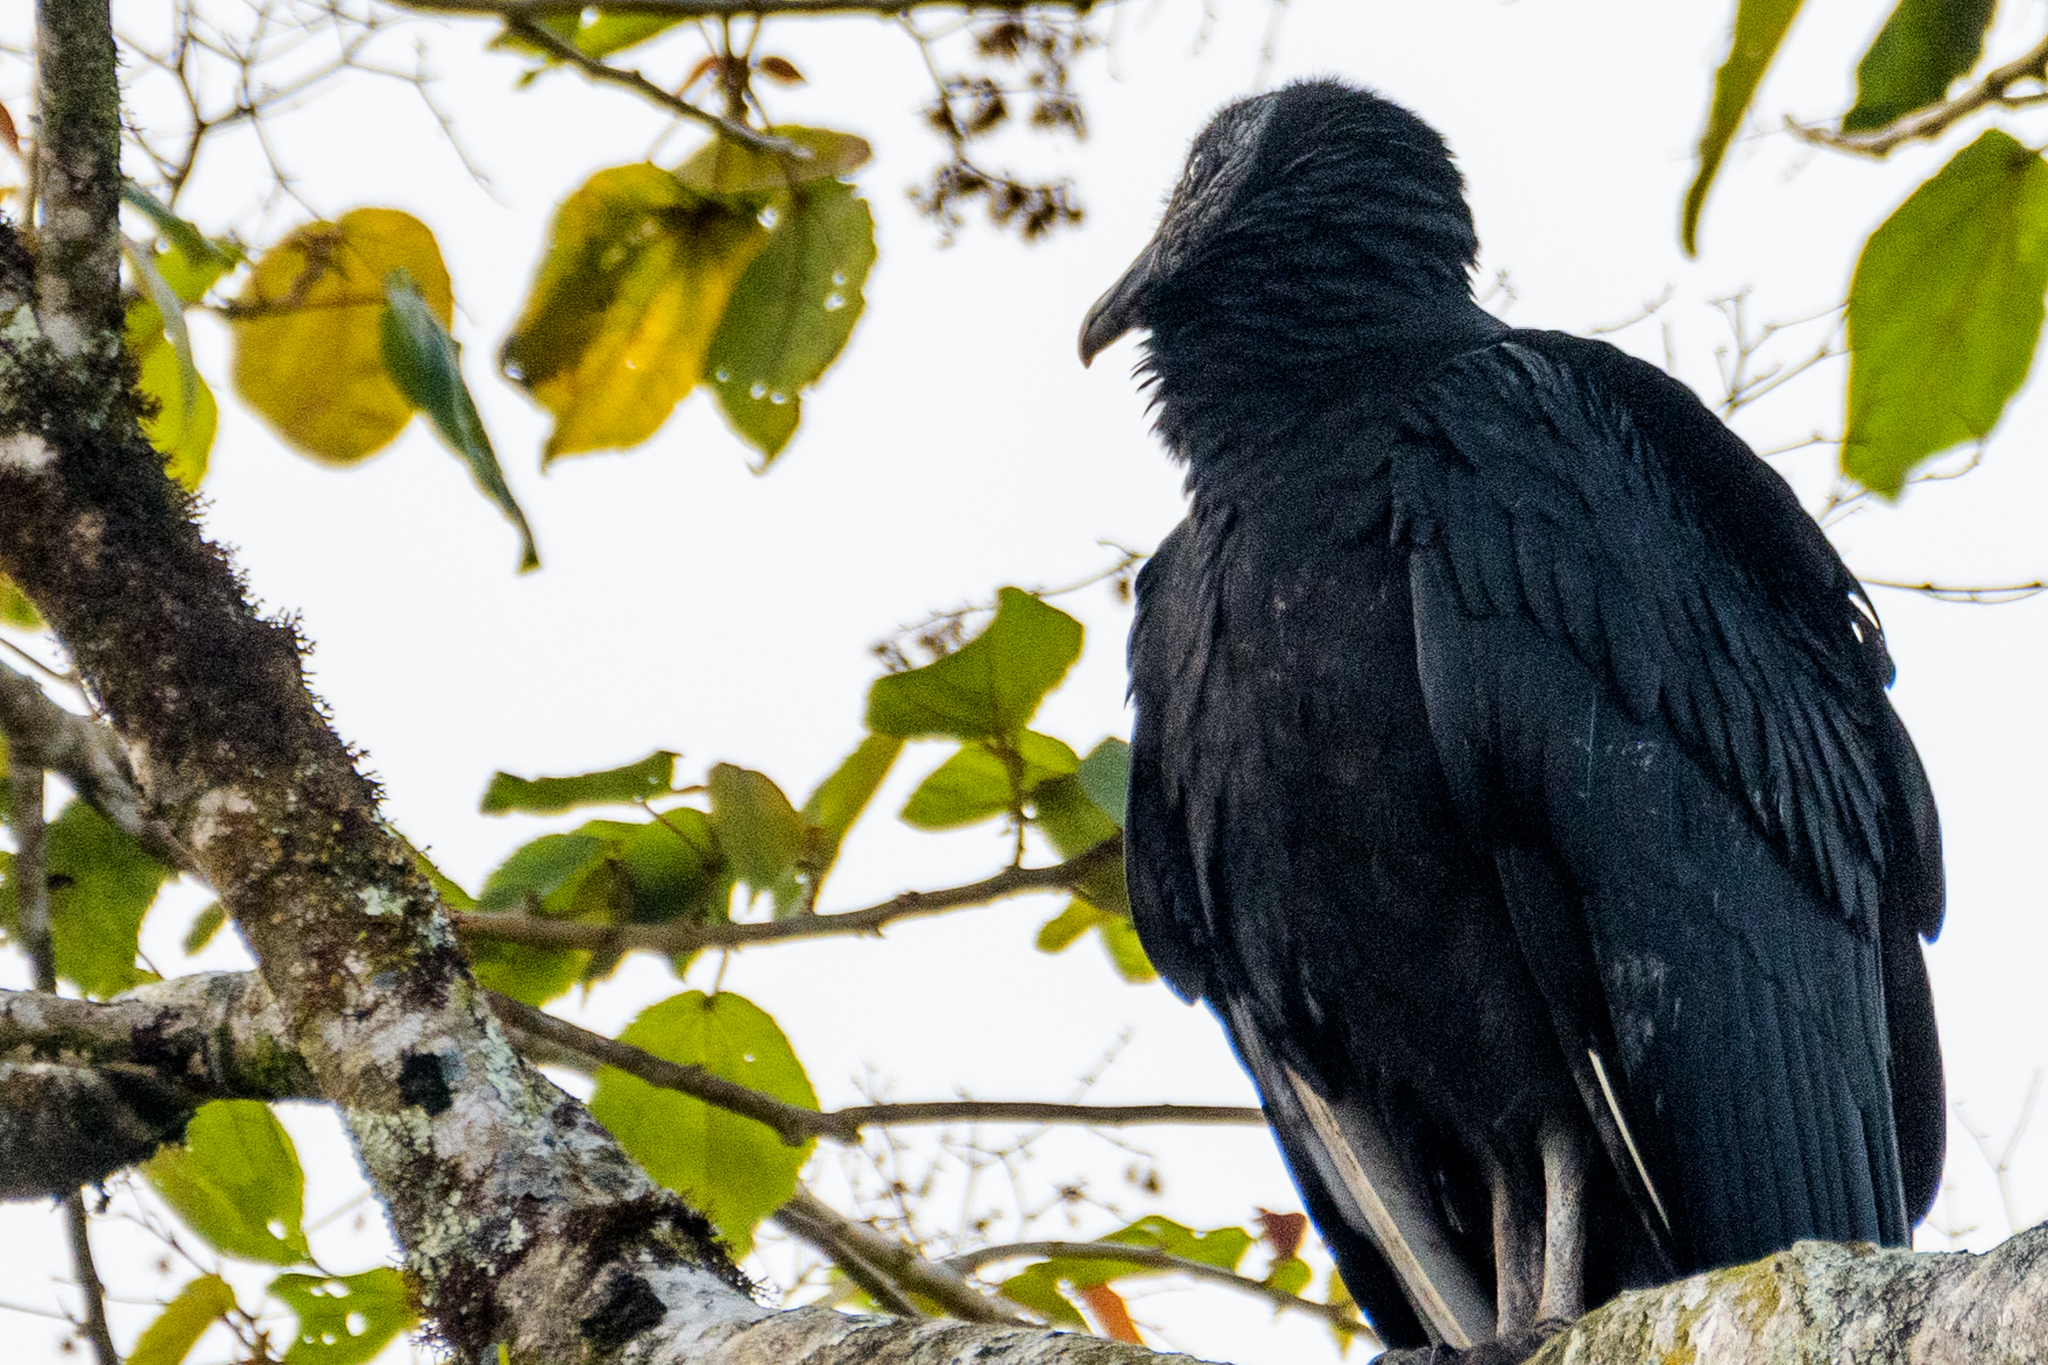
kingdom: Animalia
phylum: Chordata
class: Aves
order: Accipitriformes
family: Cathartidae
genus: Coragyps
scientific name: Coragyps atratus
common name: Black vulture
